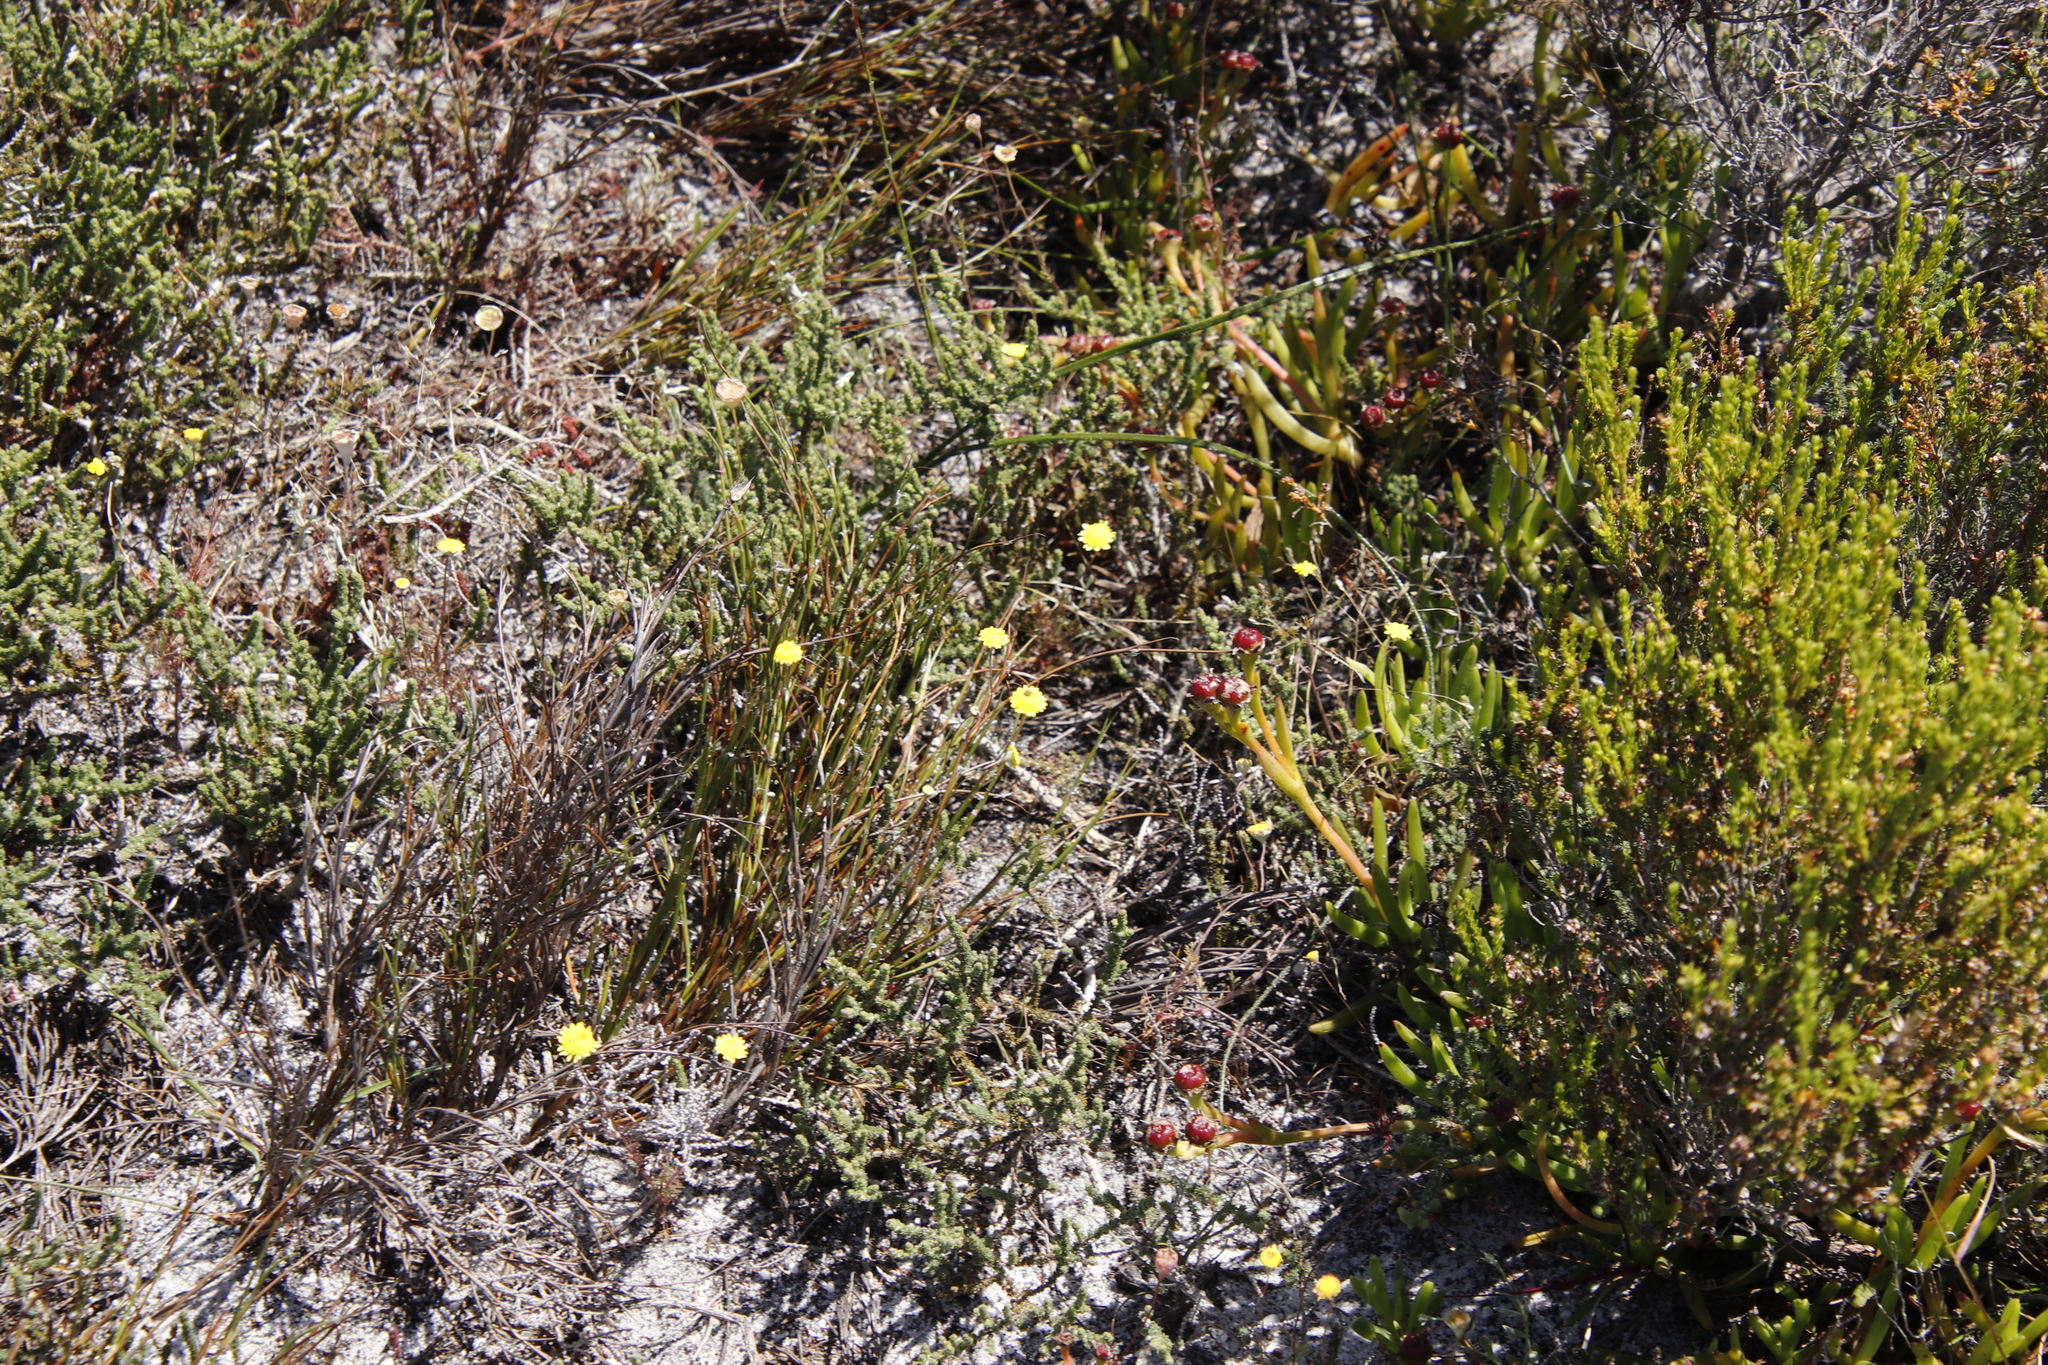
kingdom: Plantae
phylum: Tracheophyta
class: Magnoliopsida
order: Asterales
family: Asteraceae
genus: Cotula
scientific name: Cotula pruinosa
